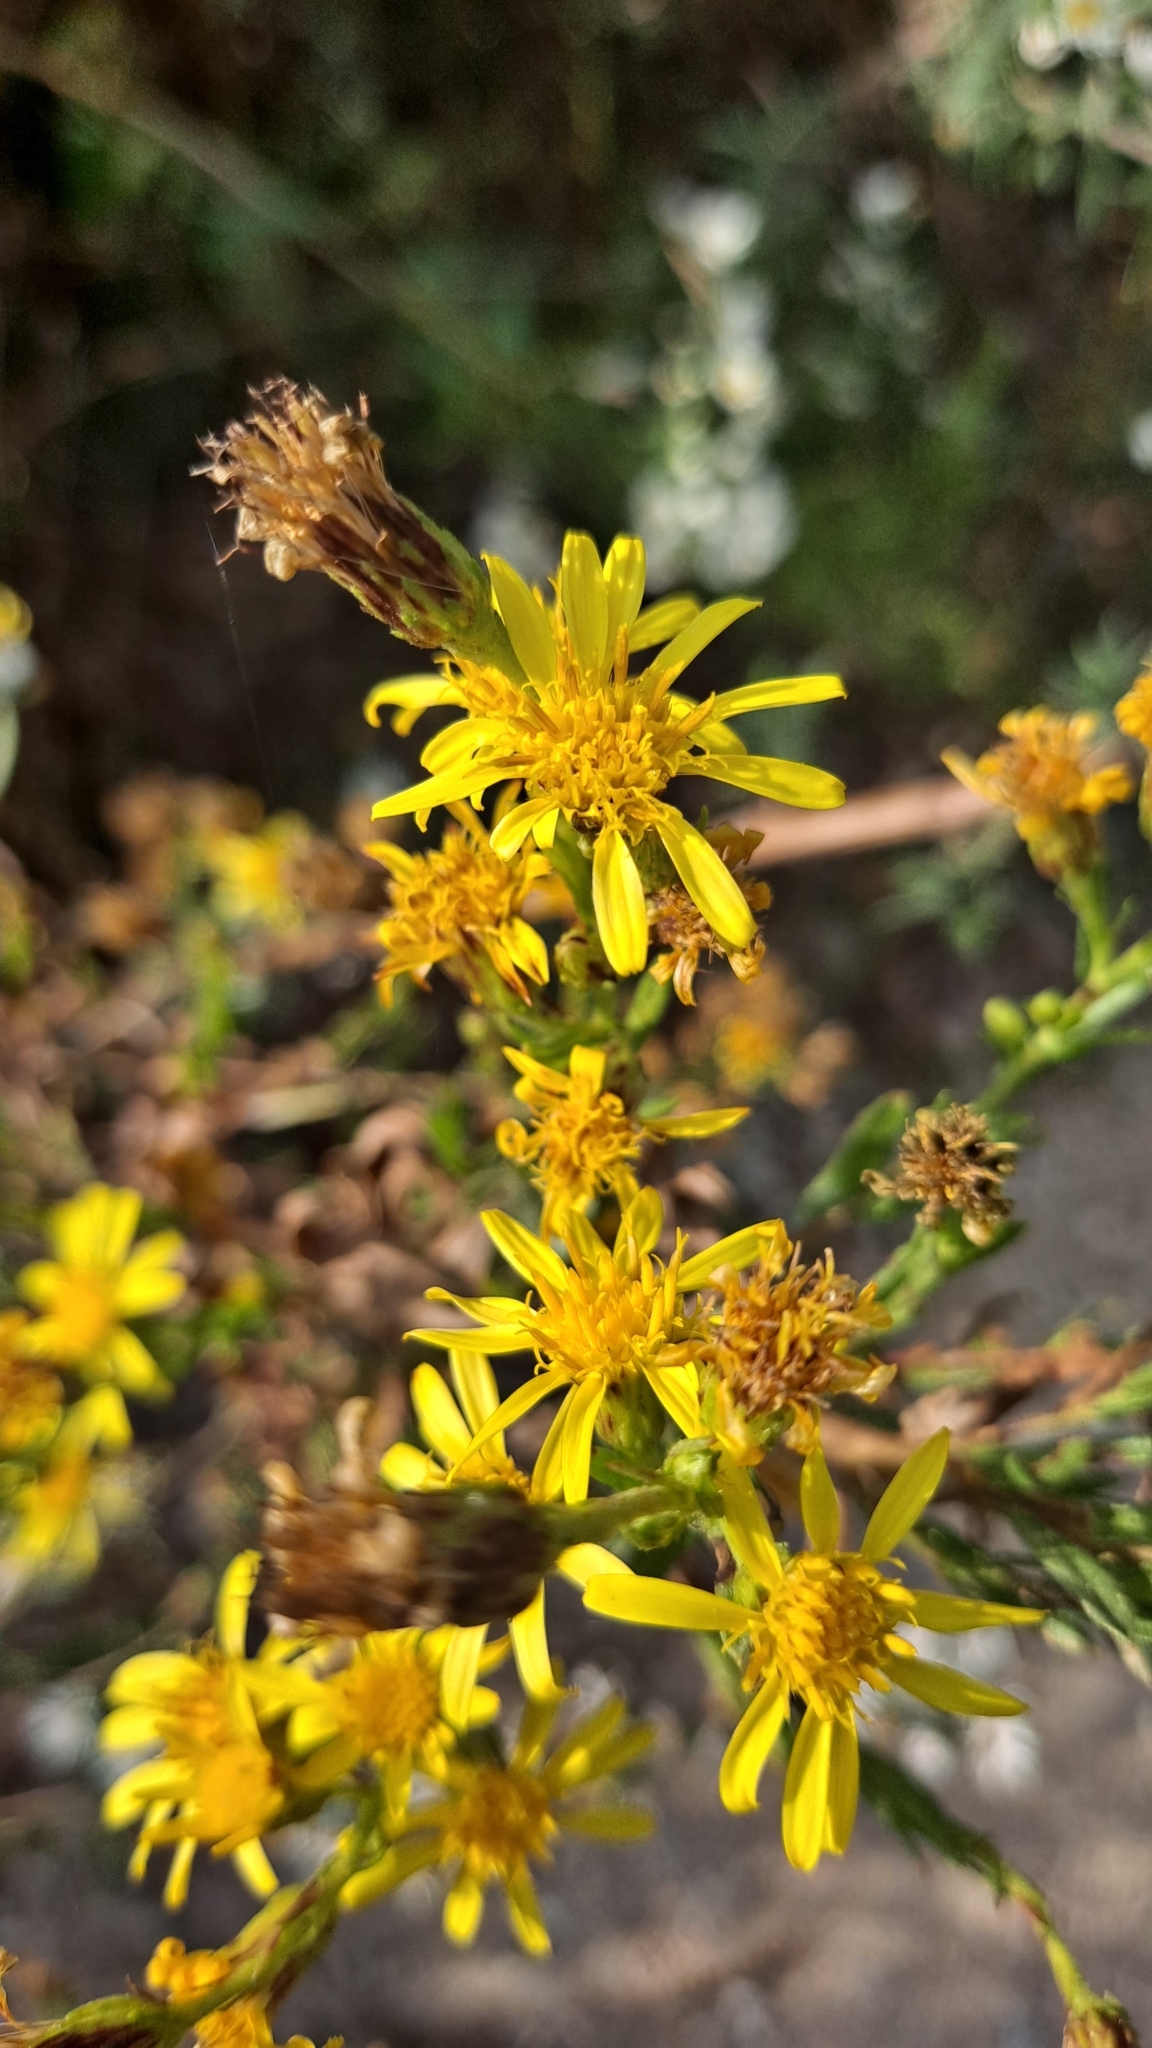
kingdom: Plantae
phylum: Tracheophyta
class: Magnoliopsida
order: Asterales
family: Asteraceae
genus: Dittrichia
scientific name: Dittrichia viscosa
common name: Woody fleabane
